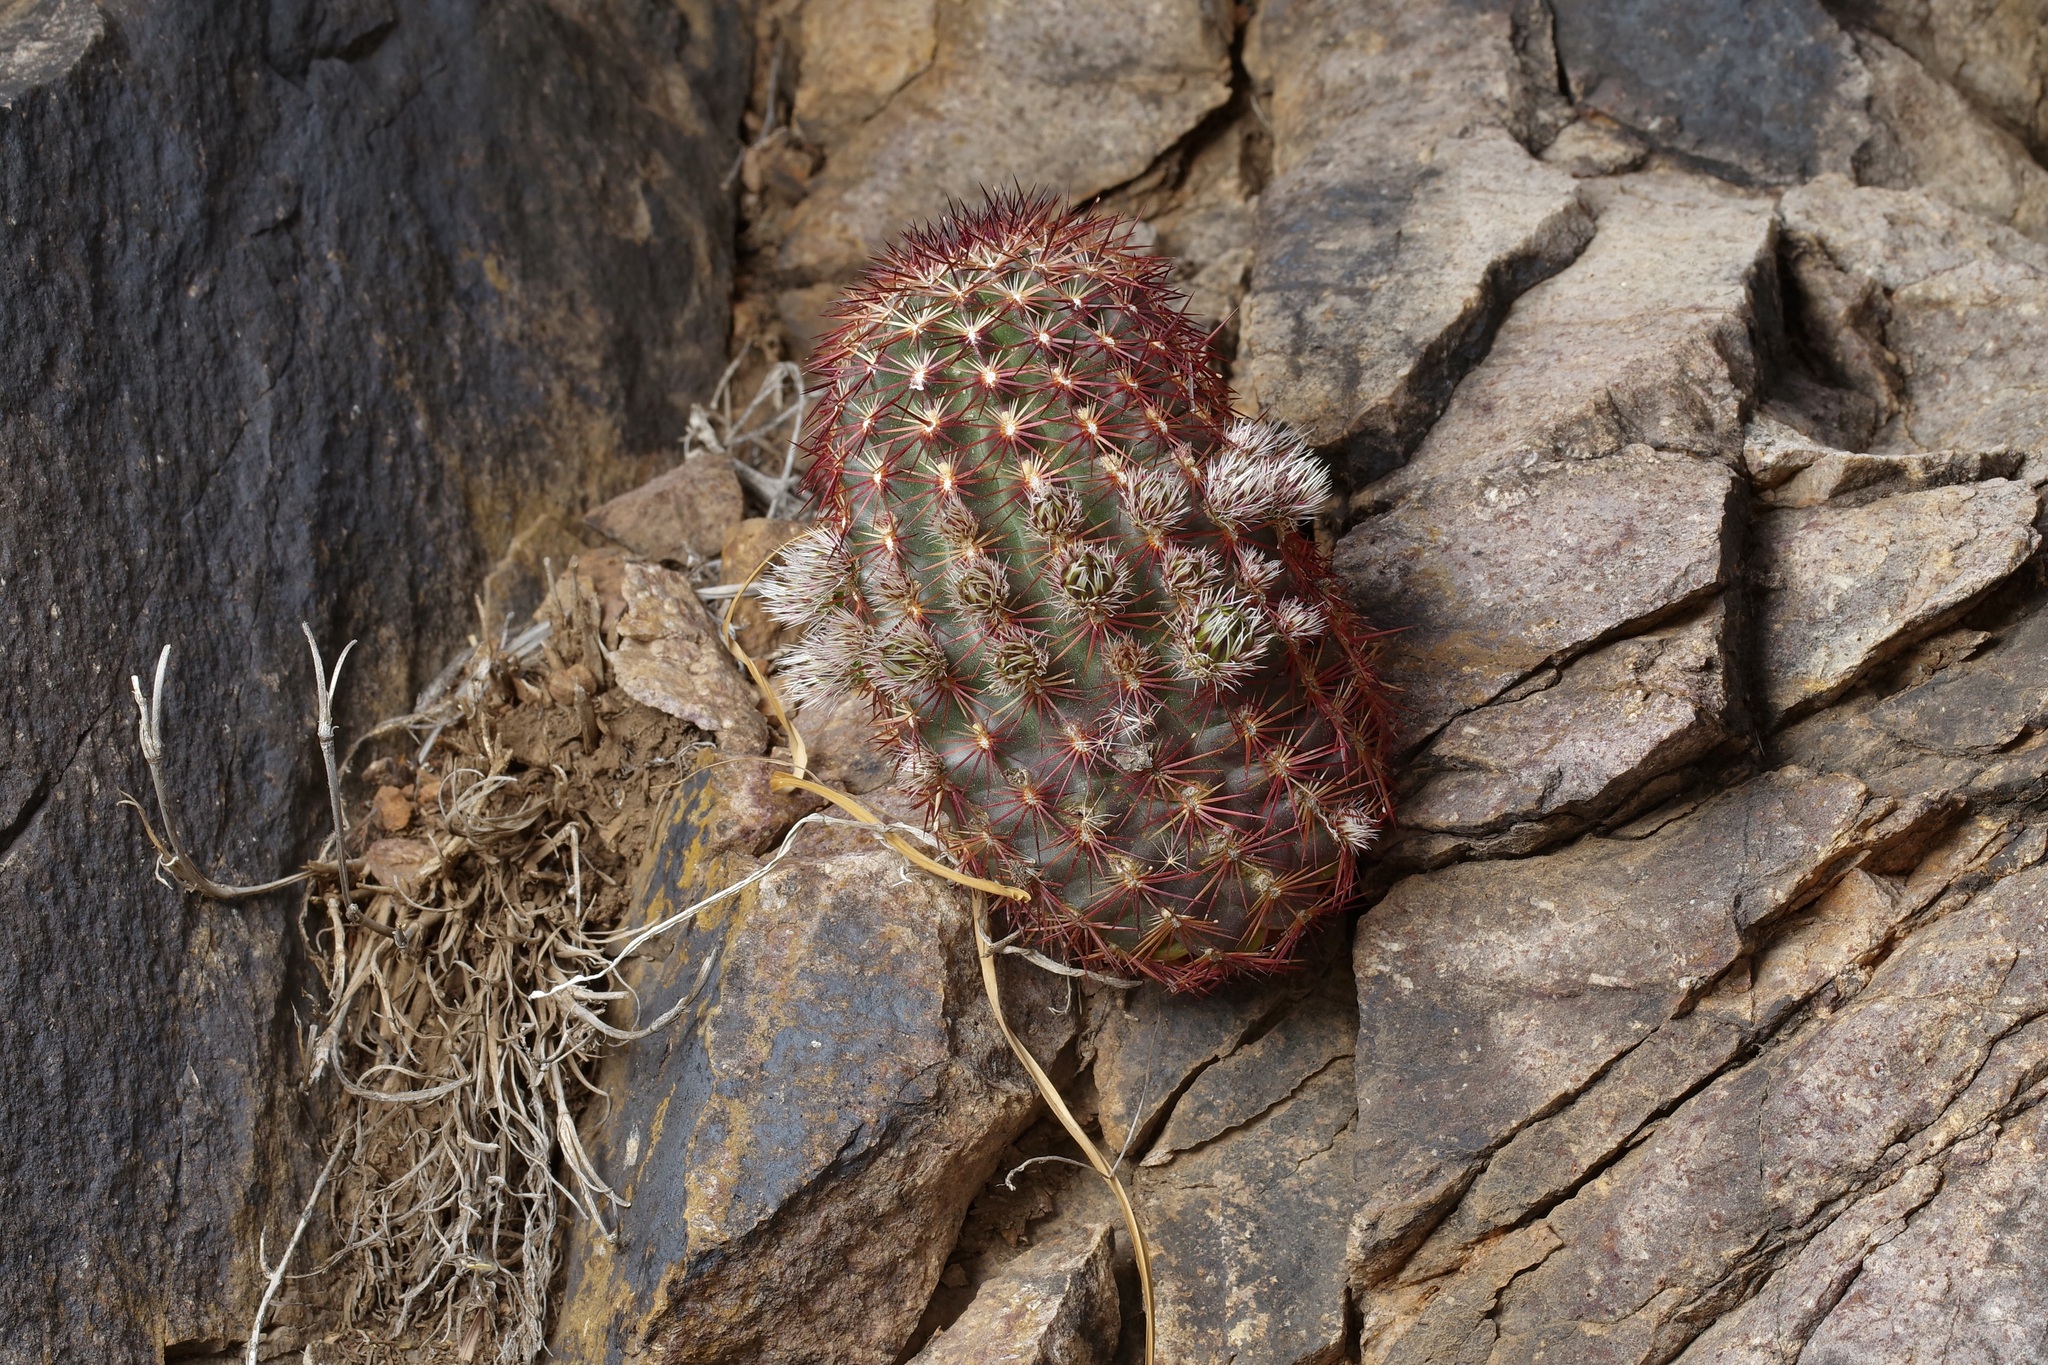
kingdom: Plantae
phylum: Tracheophyta
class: Magnoliopsida
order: Caryophyllales
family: Cactaceae
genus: Echinocereus
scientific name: Echinocereus viridiflorus
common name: Nylon hedgehog cactus
